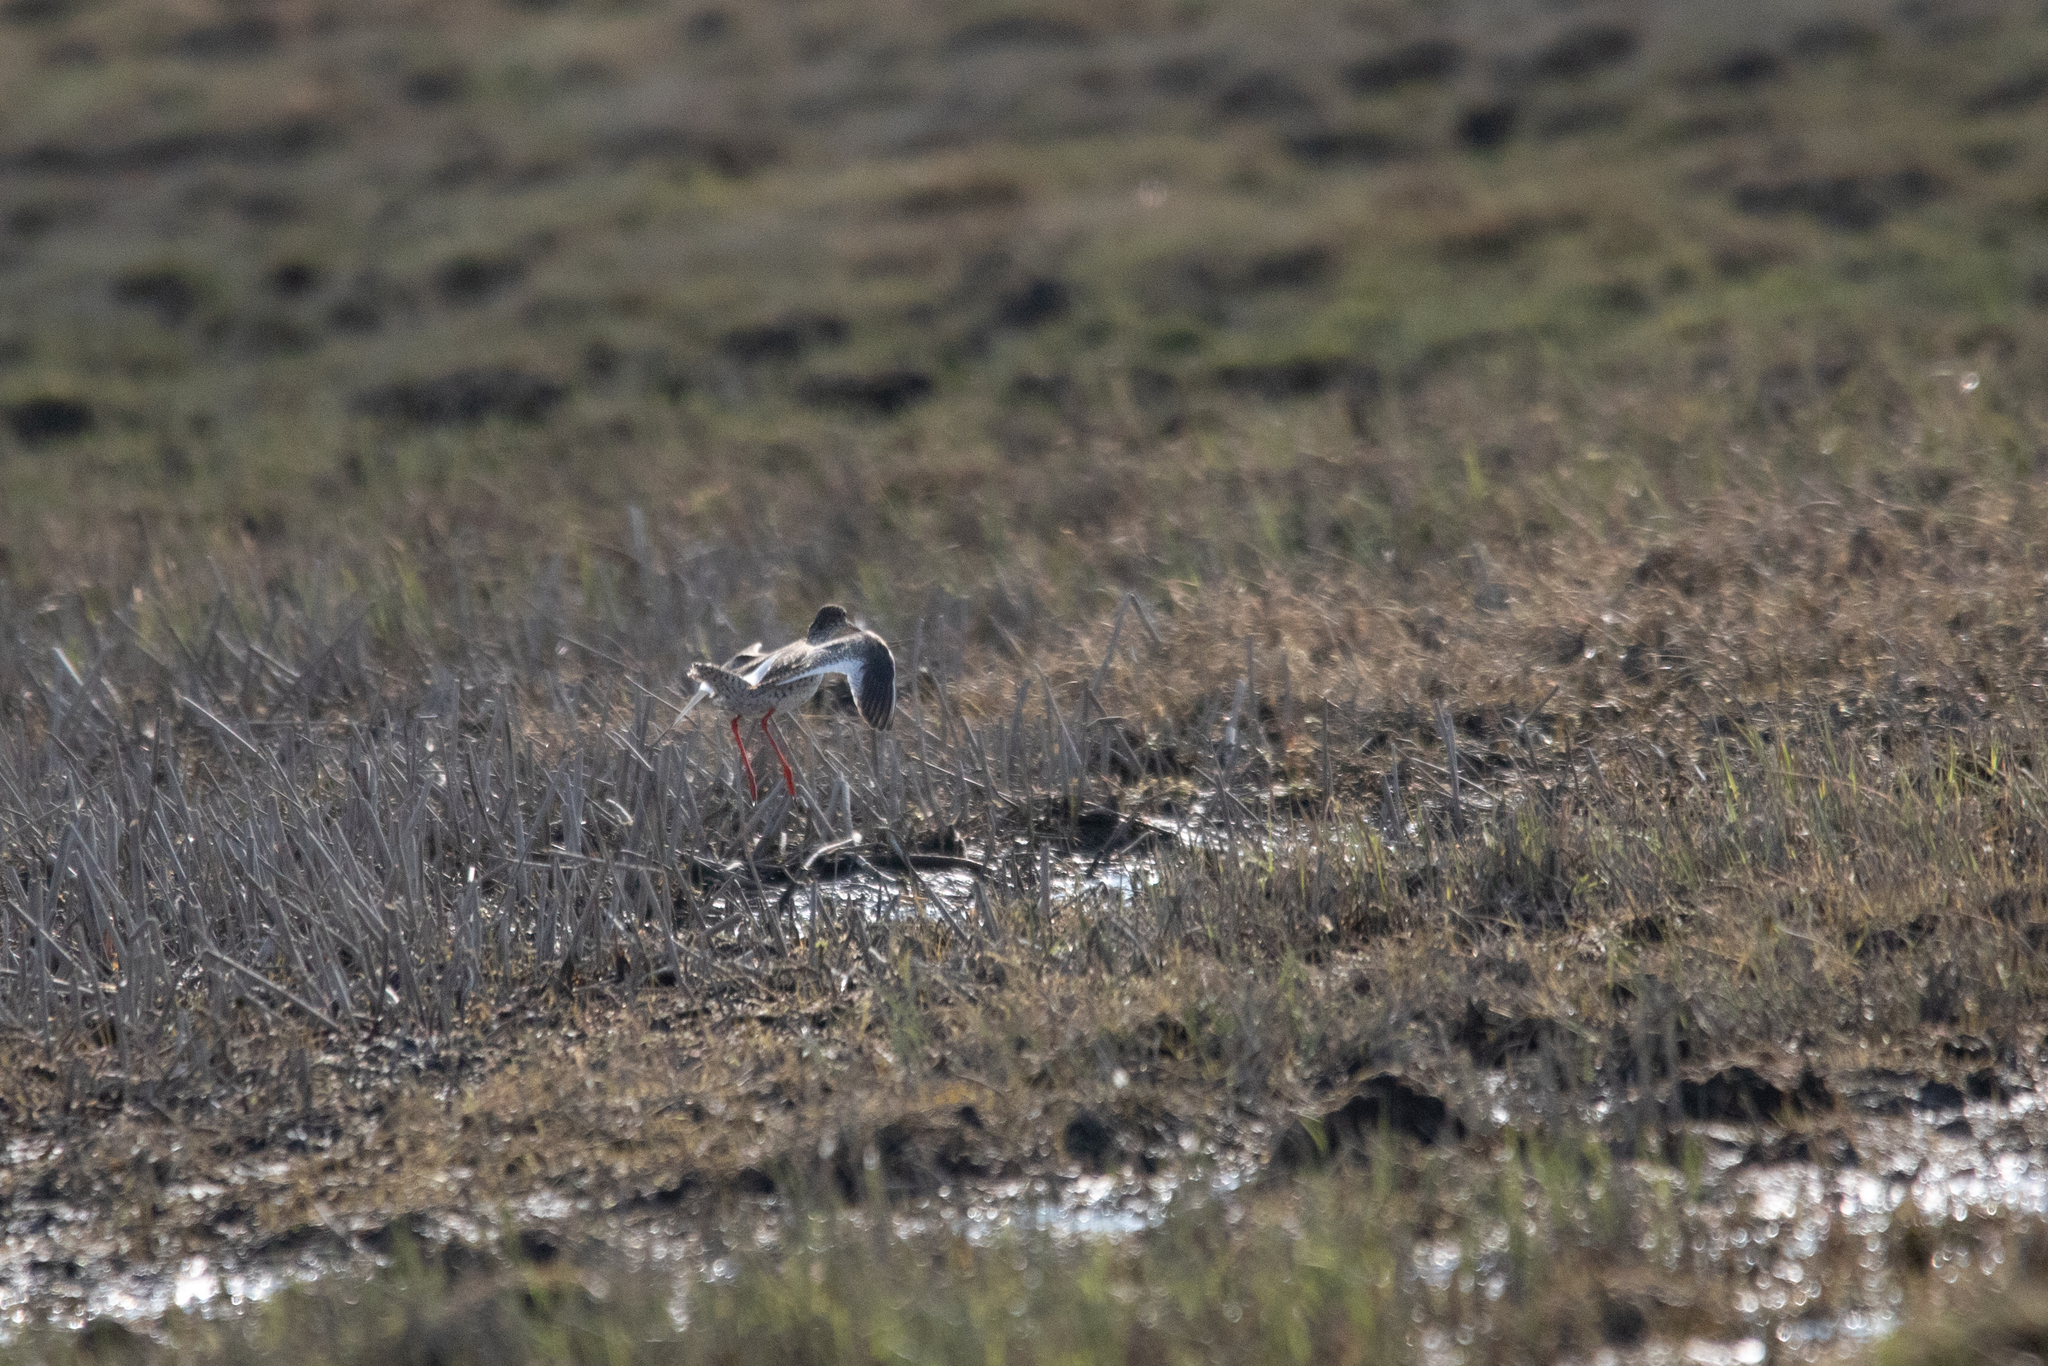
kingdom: Animalia
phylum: Chordata
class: Aves
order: Charadriiformes
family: Scolopacidae
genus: Tringa
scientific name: Tringa totanus
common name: Common redshank
